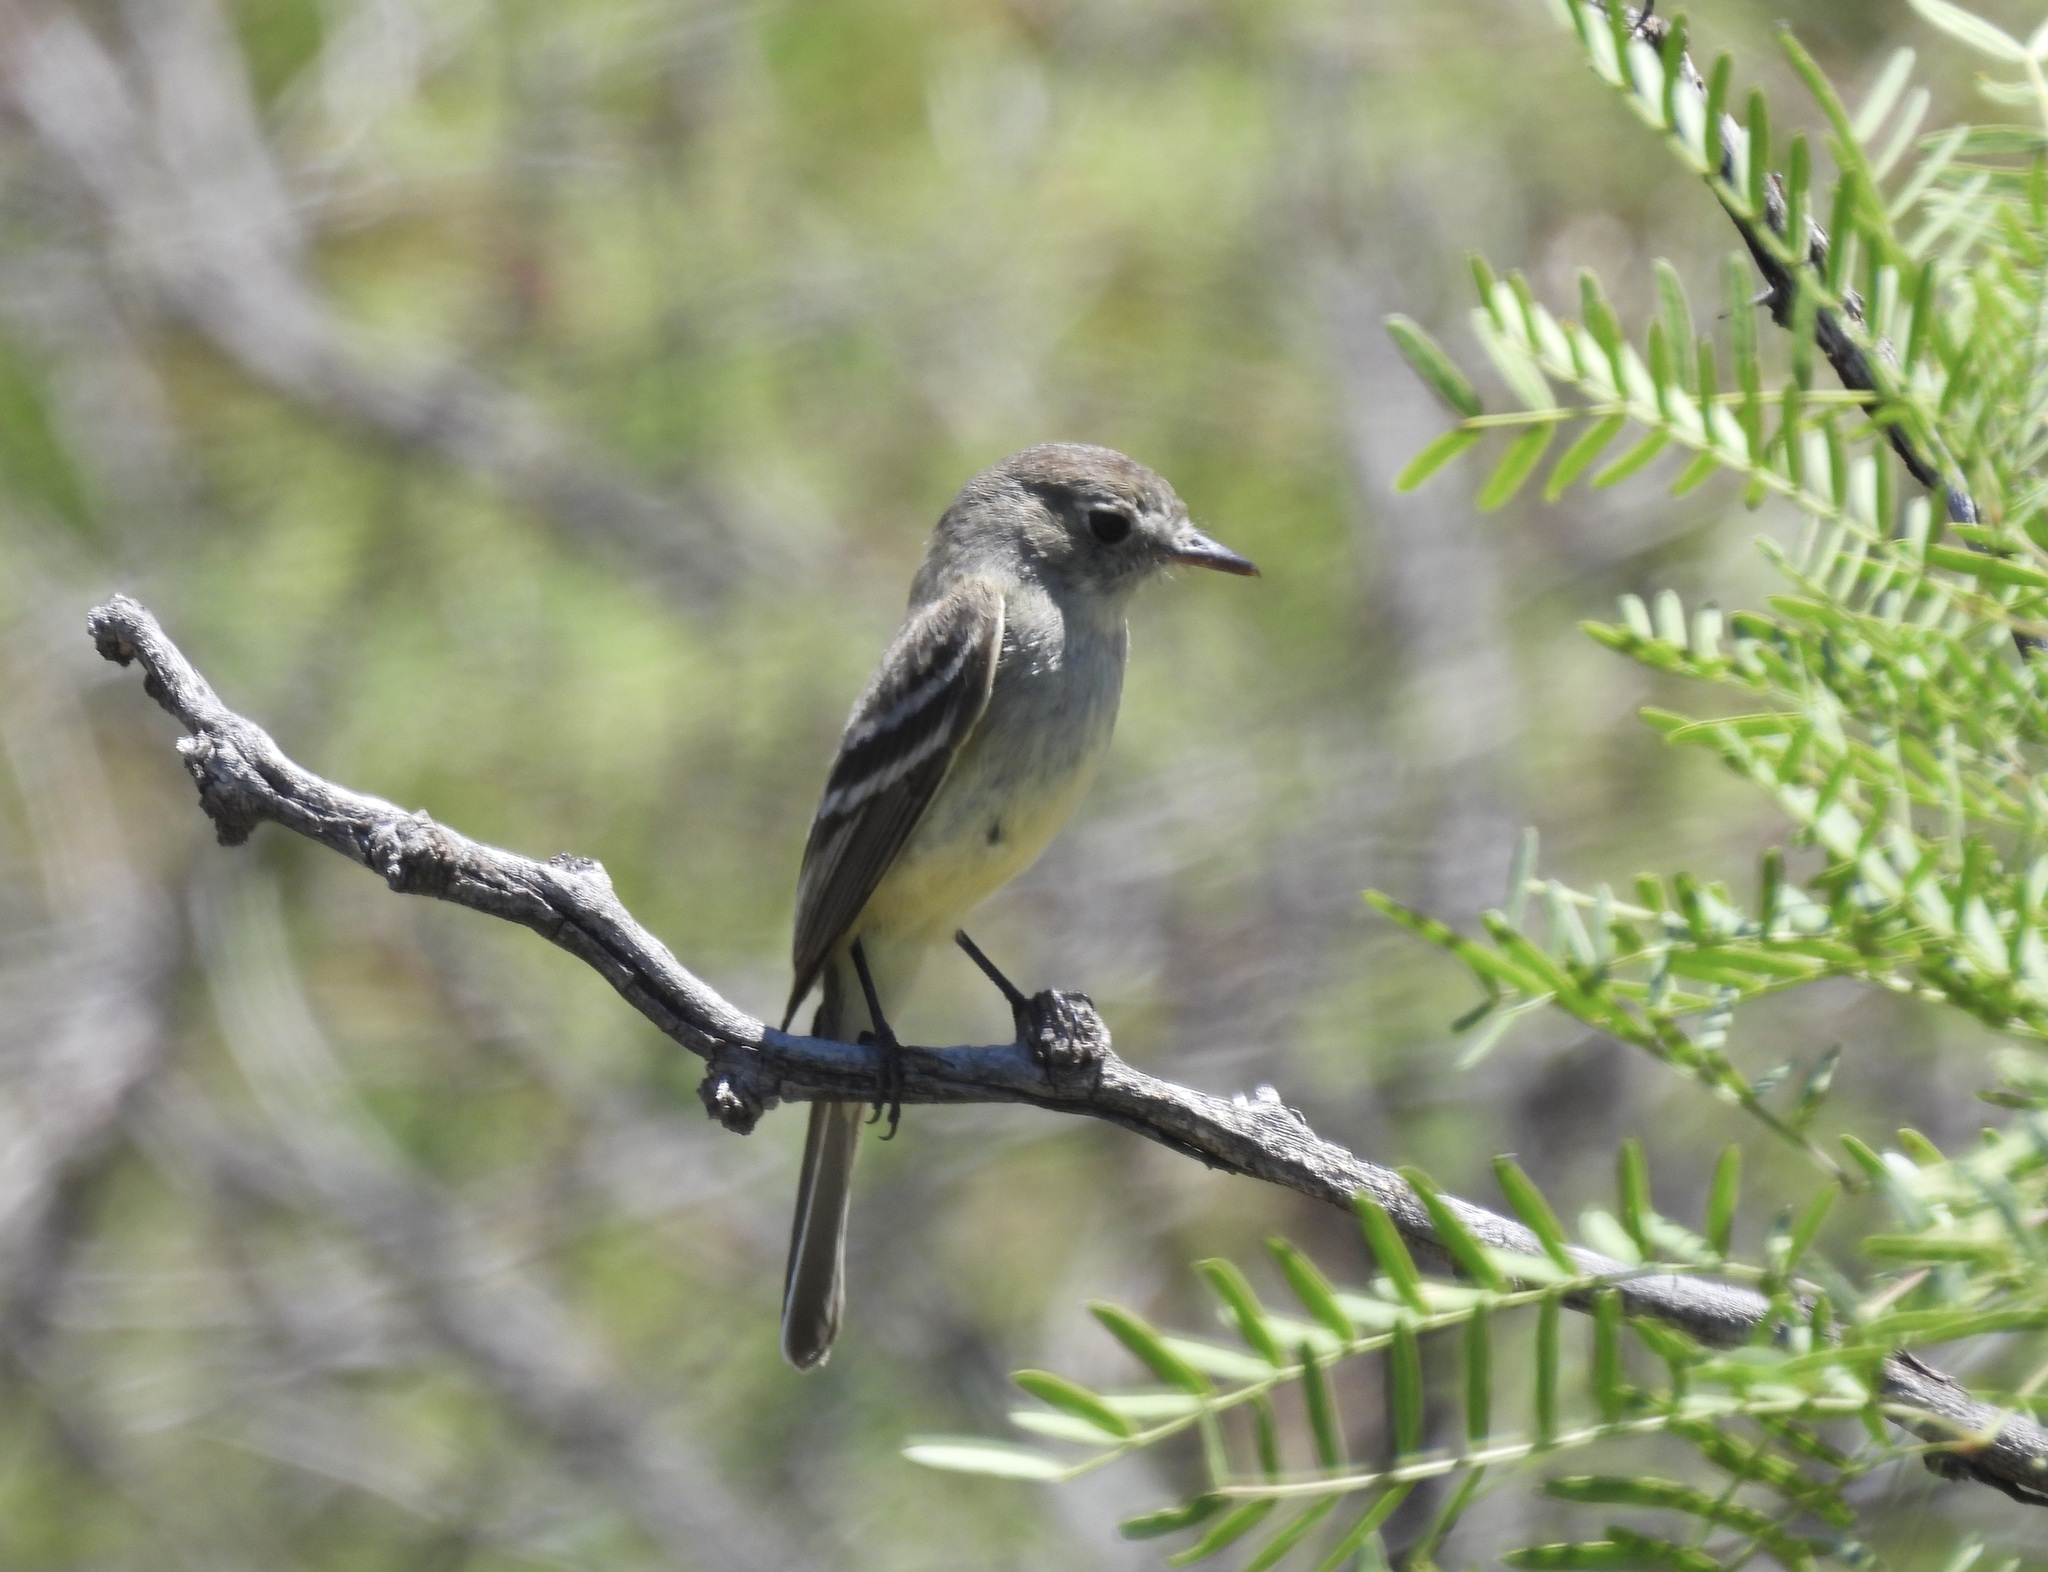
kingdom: Animalia
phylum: Chordata
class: Aves
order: Passeriformes
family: Tyrannidae
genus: Empidonax
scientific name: Empidonax oberholseri
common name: Dusky flycatcher
